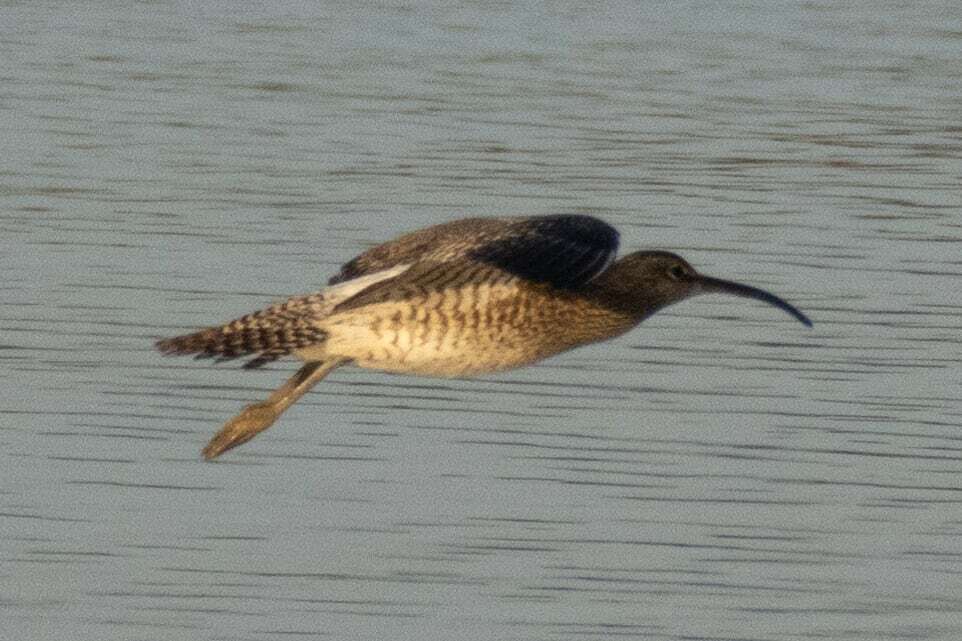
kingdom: Animalia
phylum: Chordata
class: Aves
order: Charadriiformes
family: Scolopacidae
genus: Numenius
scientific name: Numenius phaeopus
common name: Whimbrel
